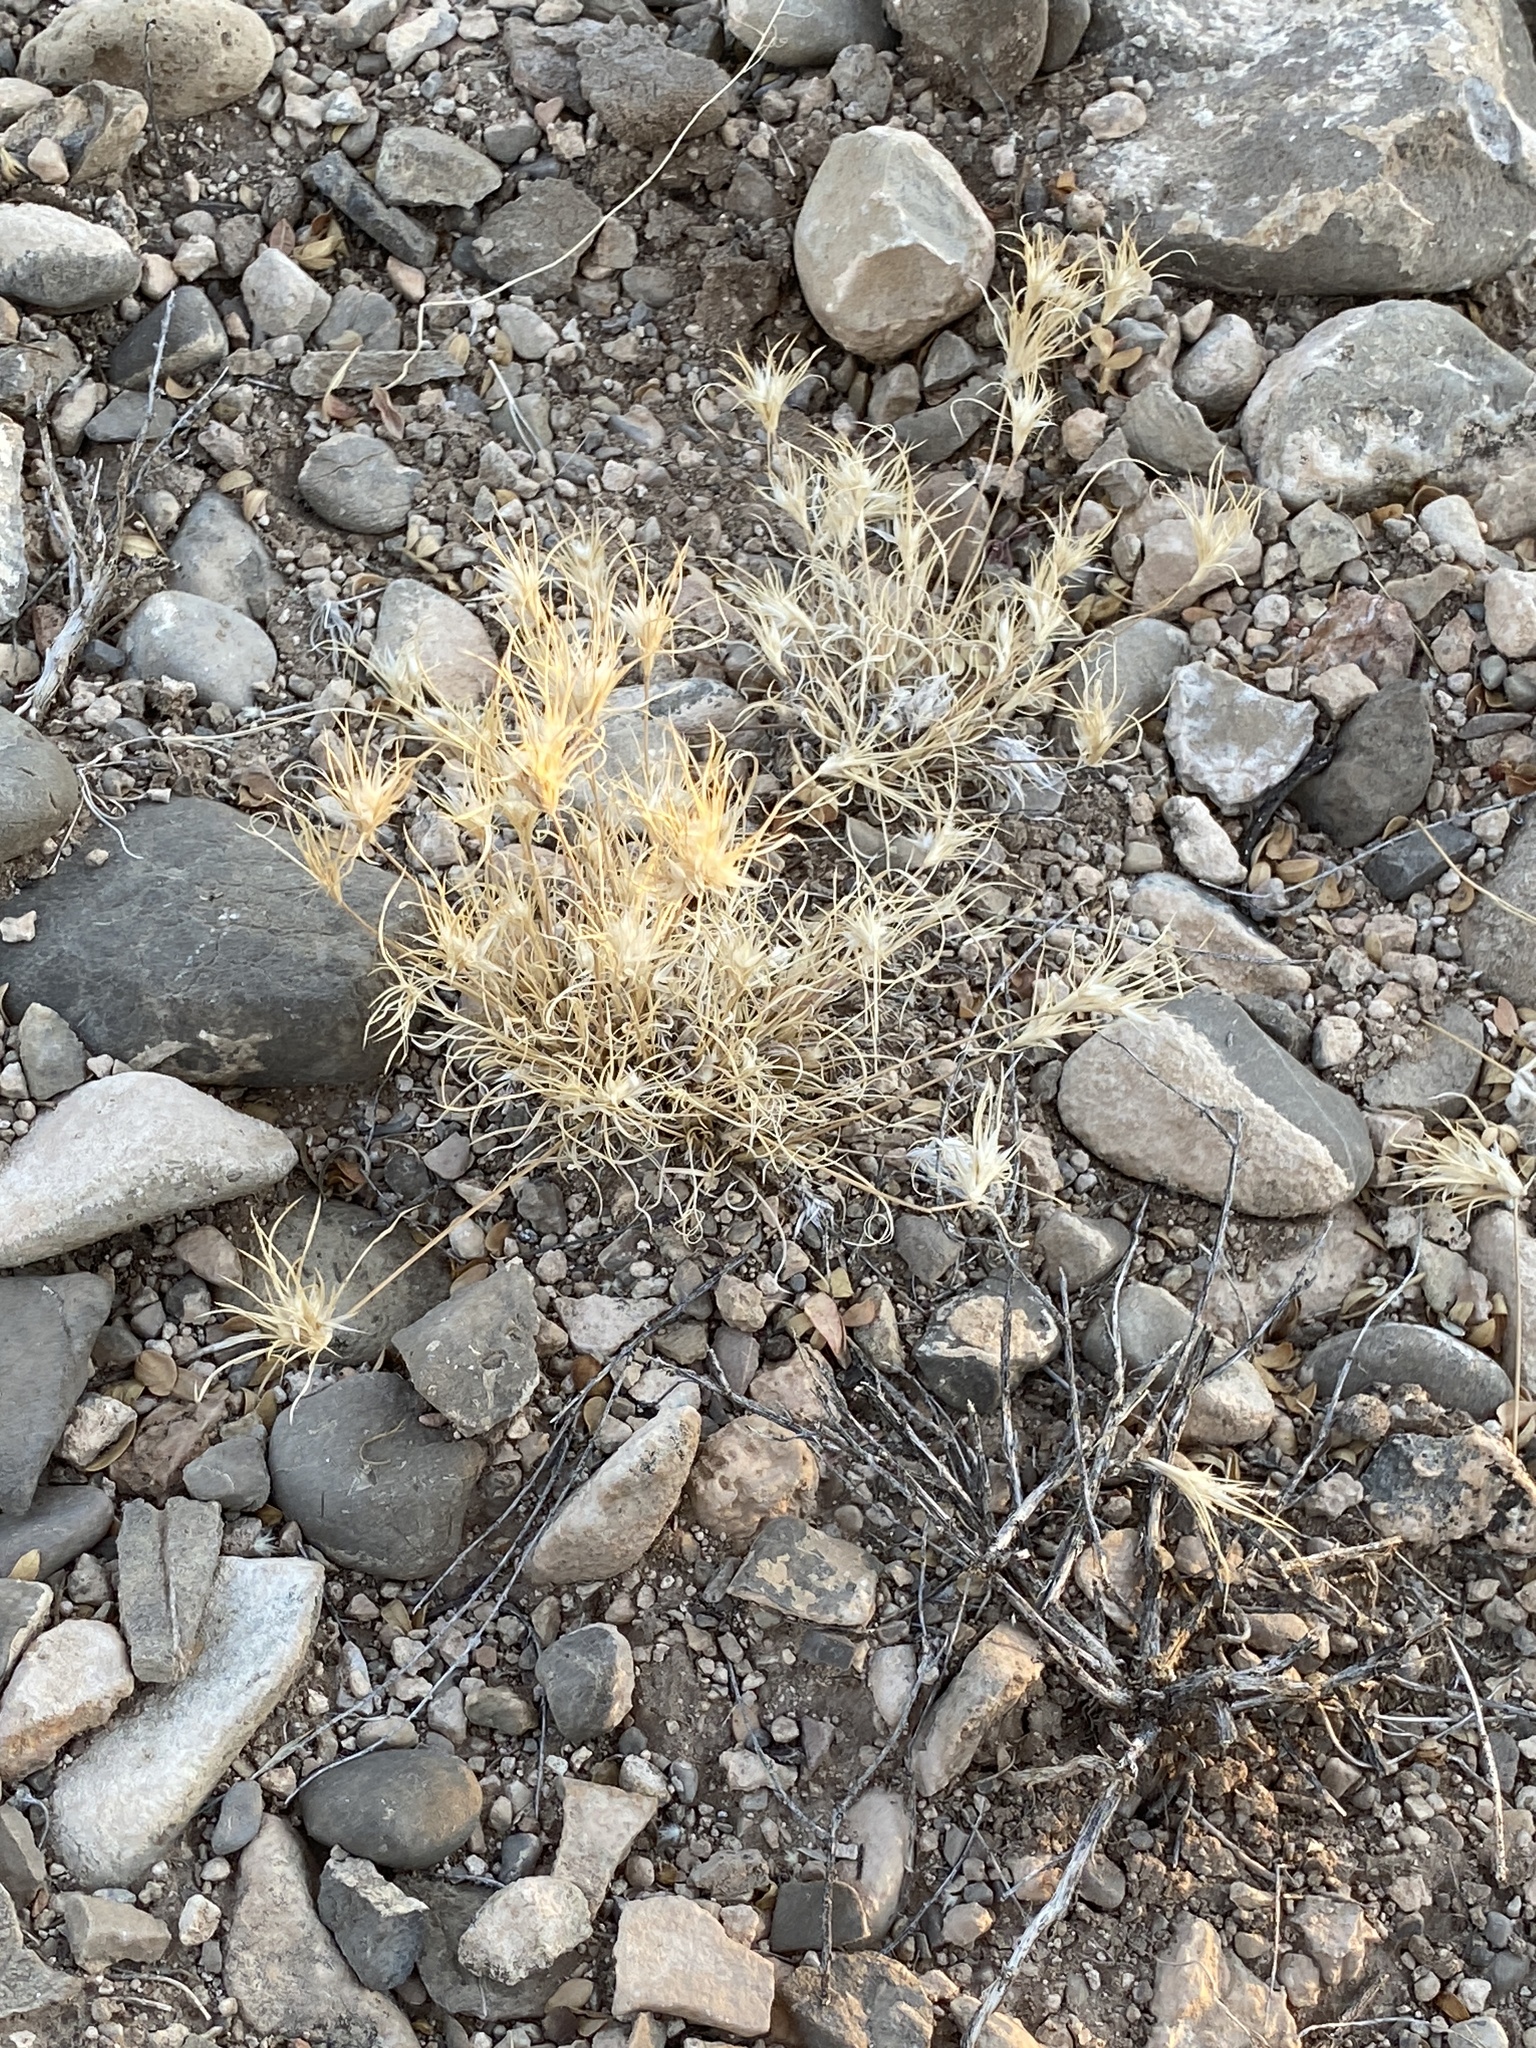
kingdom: Plantae
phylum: Tracheophyta
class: Liliopsida
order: Poales
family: Poaceae
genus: Dasyochloa
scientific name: Dasyochloa pulchella
